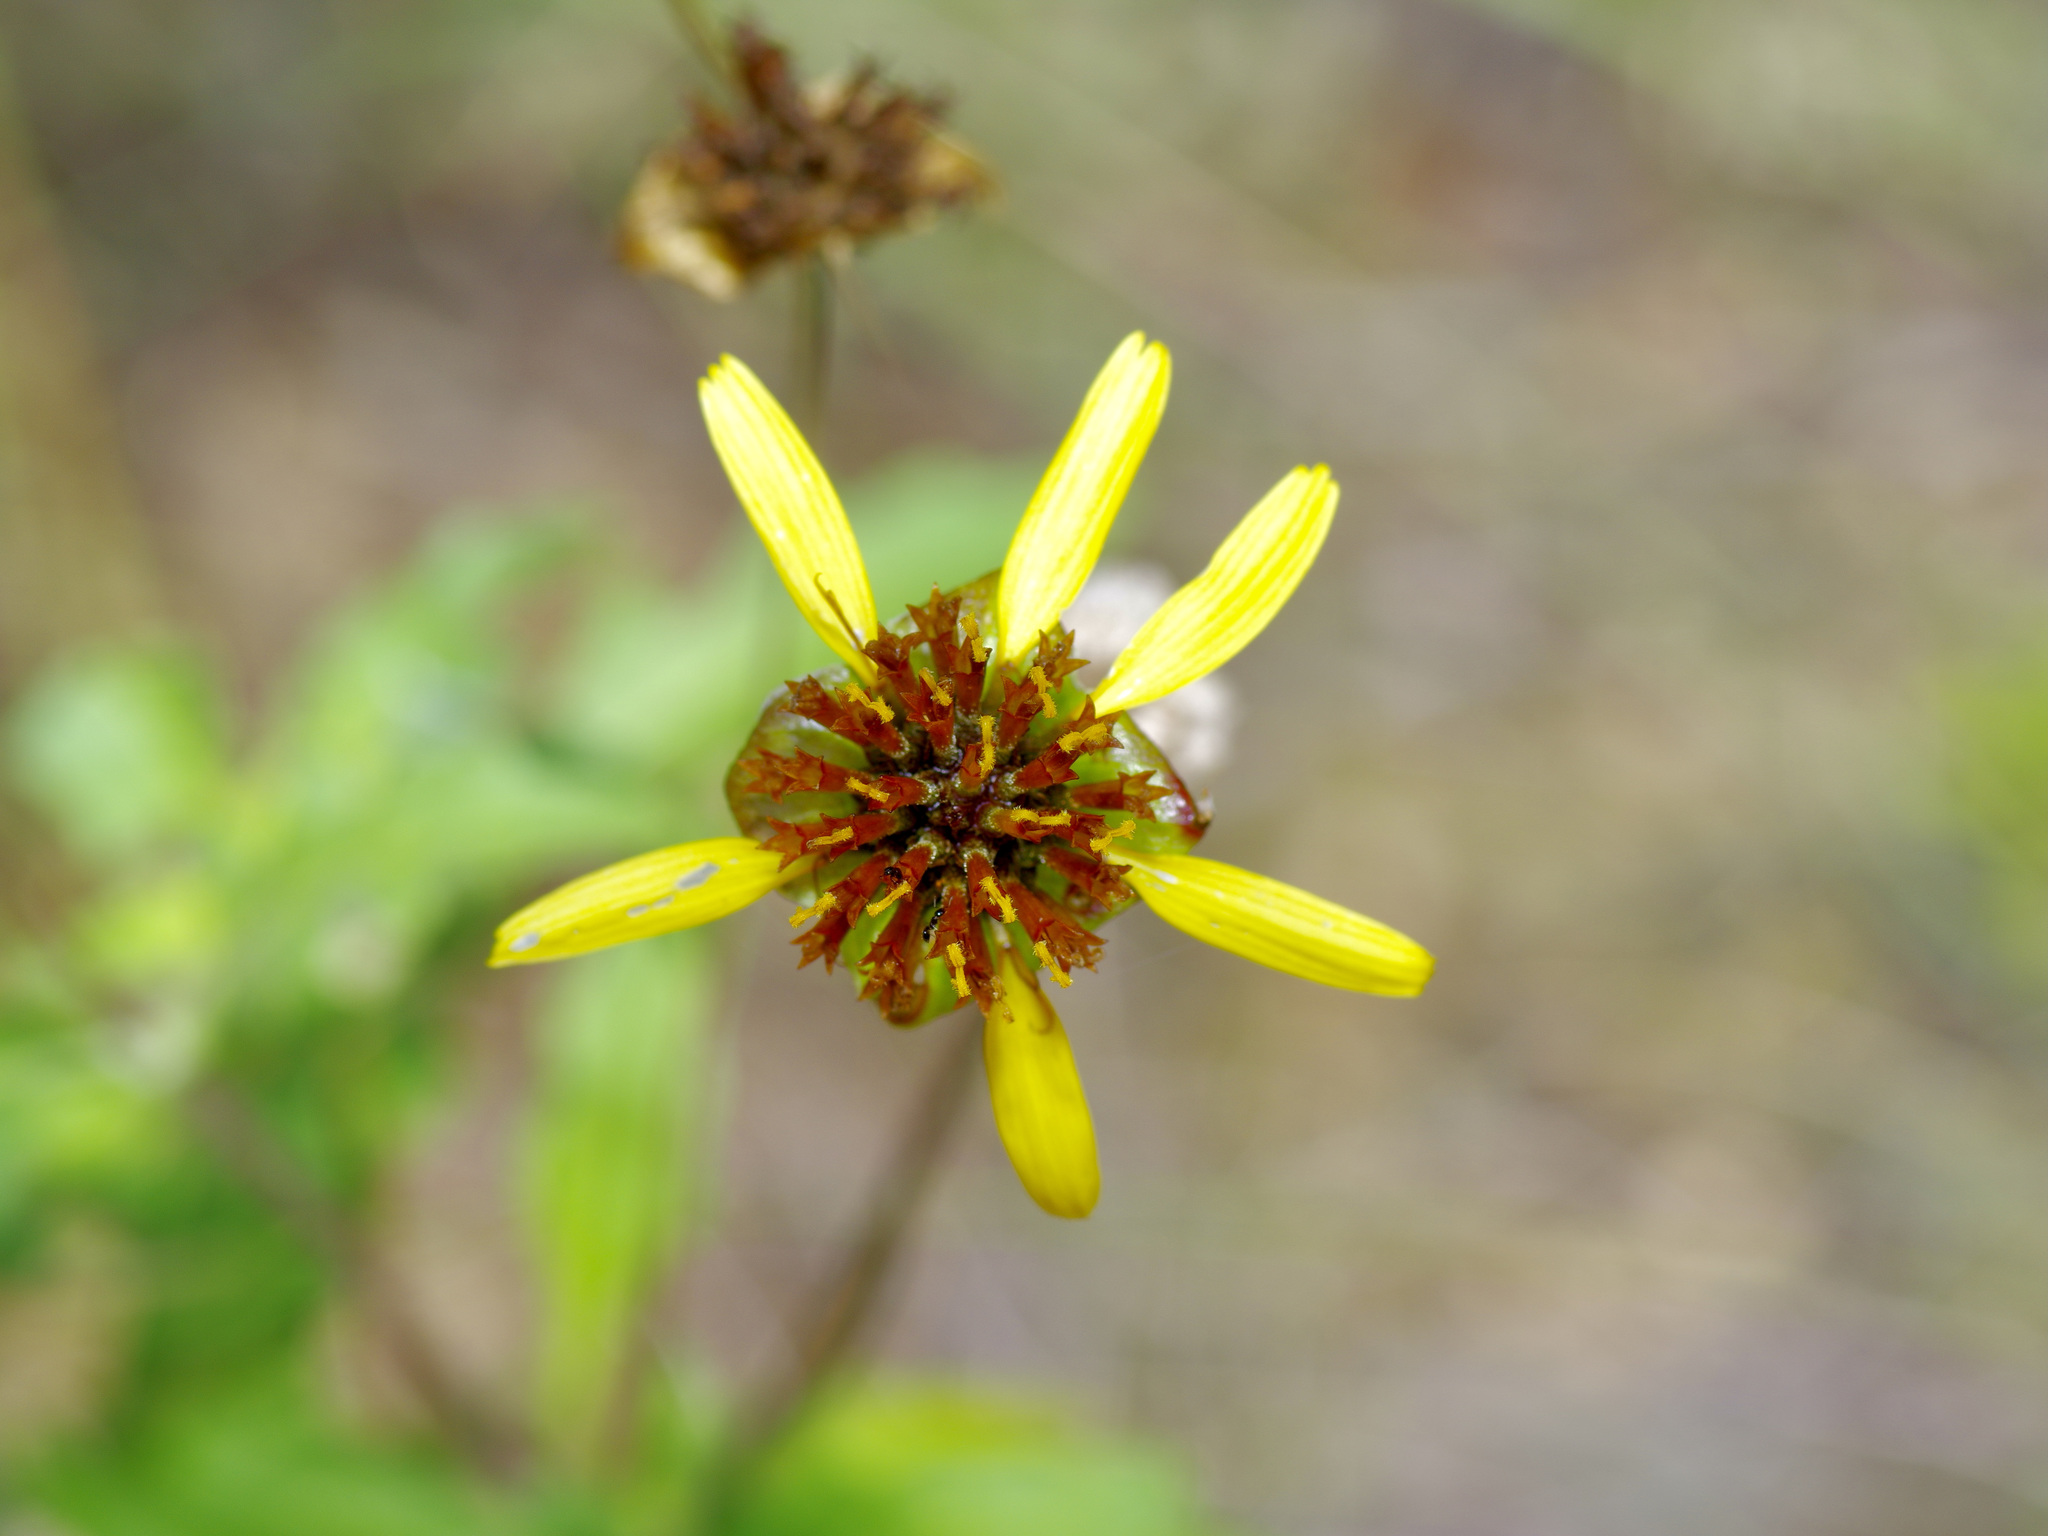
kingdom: Plantae
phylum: Tracheophyta
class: Magnoliopsida
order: Asterales
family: Asteraceae
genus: Tetragonotheca
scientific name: Tetragonotheca texana
